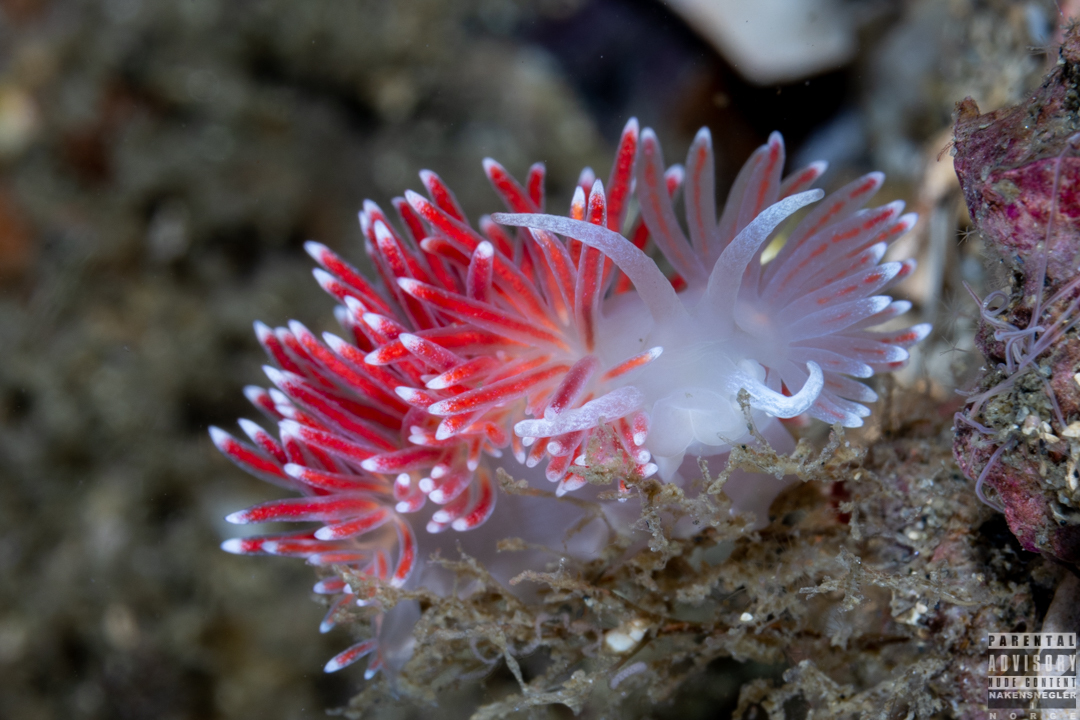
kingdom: Animalia
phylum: Mollusca
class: Gastropoda
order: Nudibranchia
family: Flabellinidae
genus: Carronella
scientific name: Carronella pellucida
